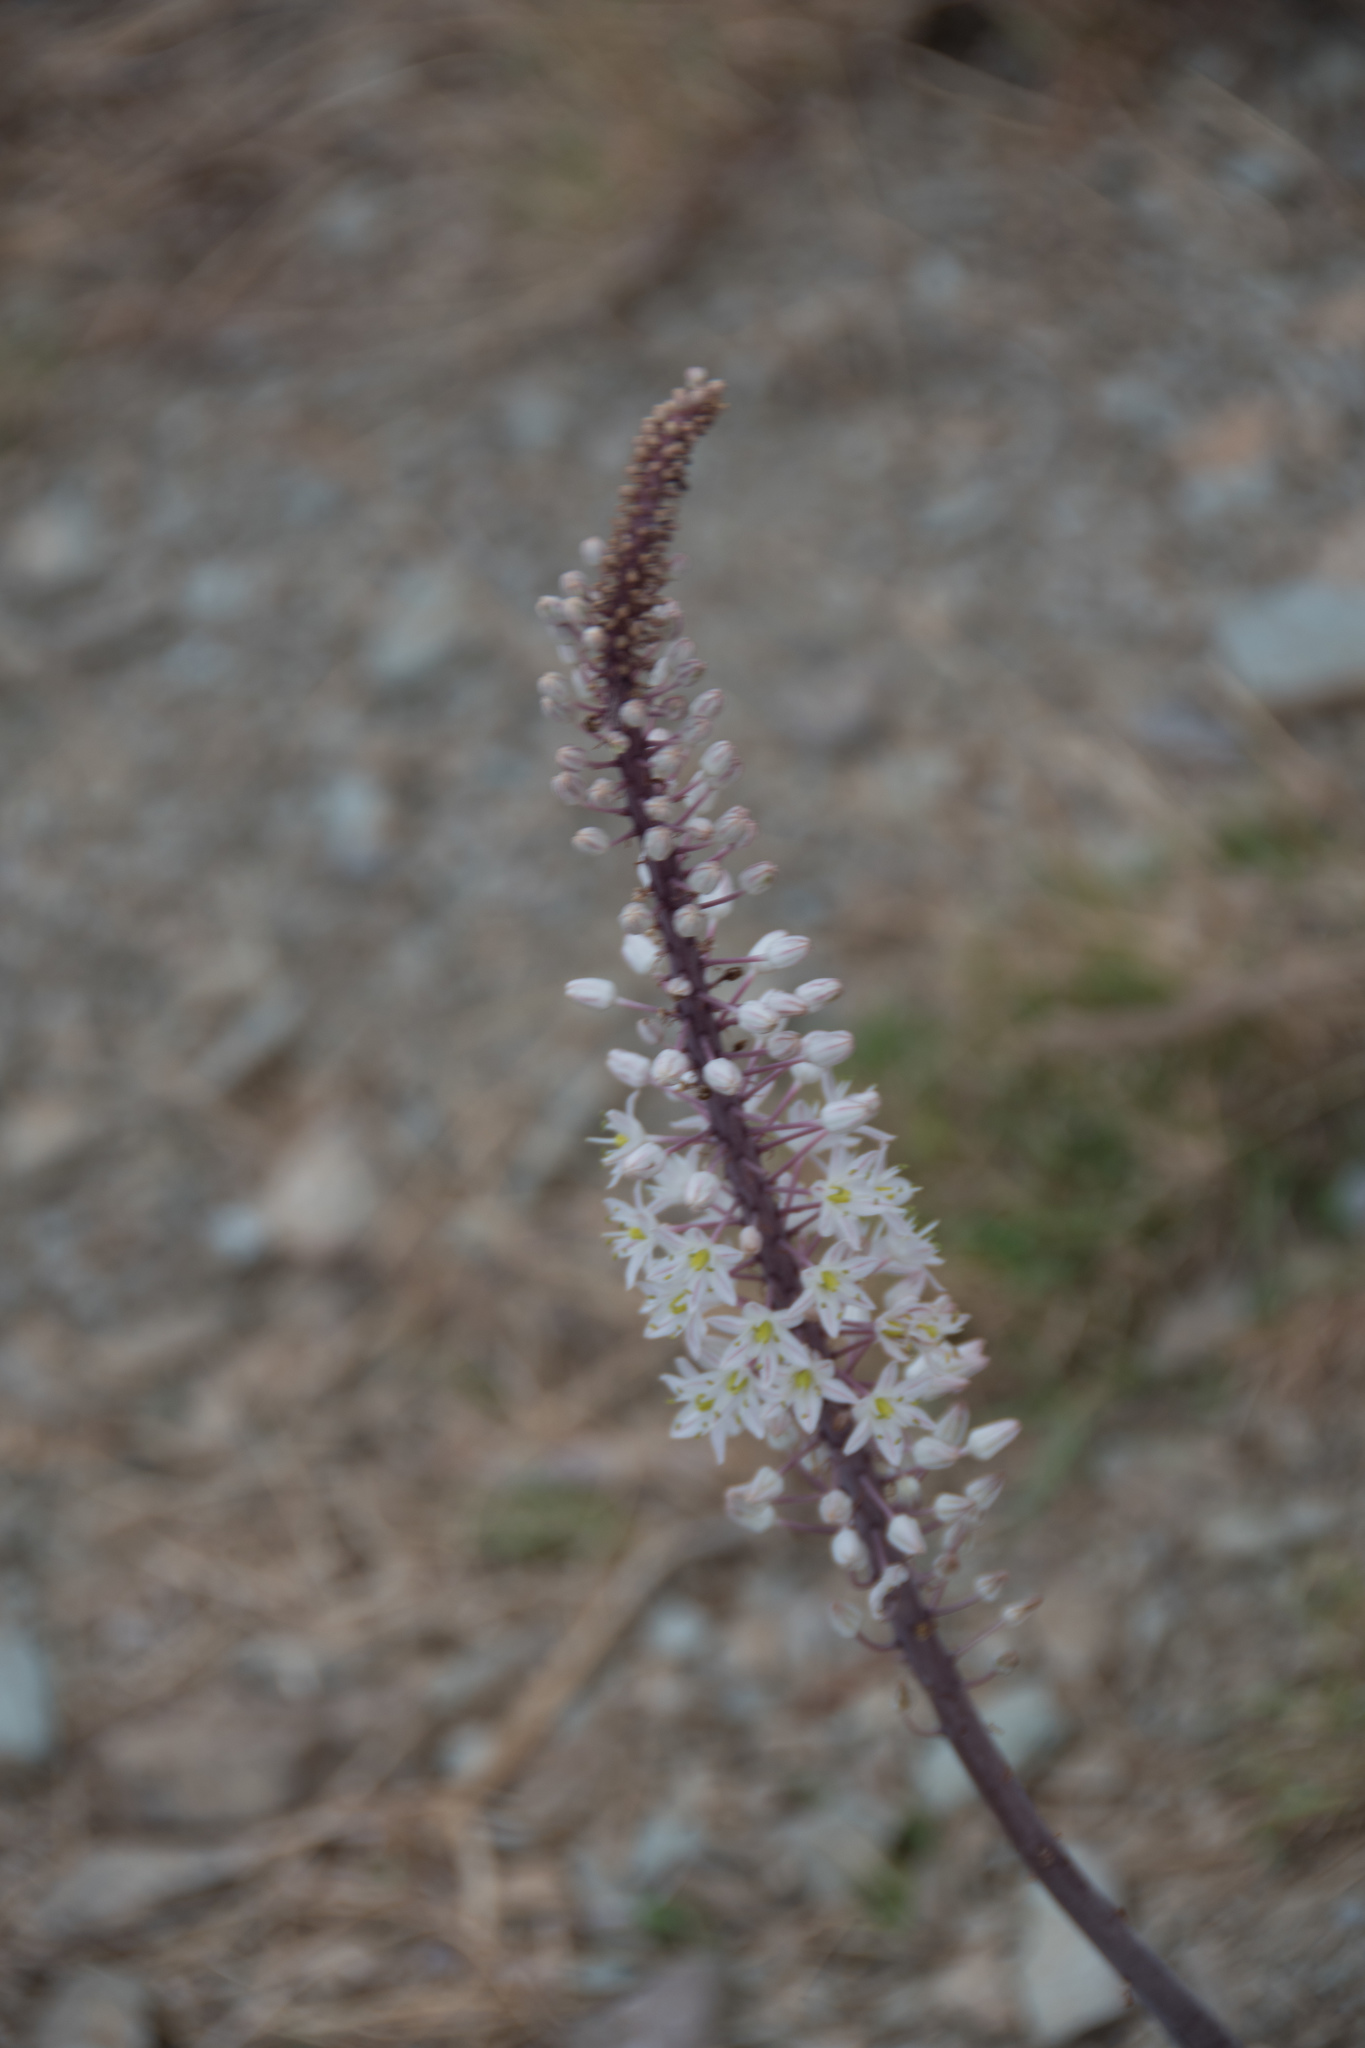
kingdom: Plantae
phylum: Tracheophyta
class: Liliopsida
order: Asparagales
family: Asparagaceae
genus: Drimia
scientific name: Drimia numidica
